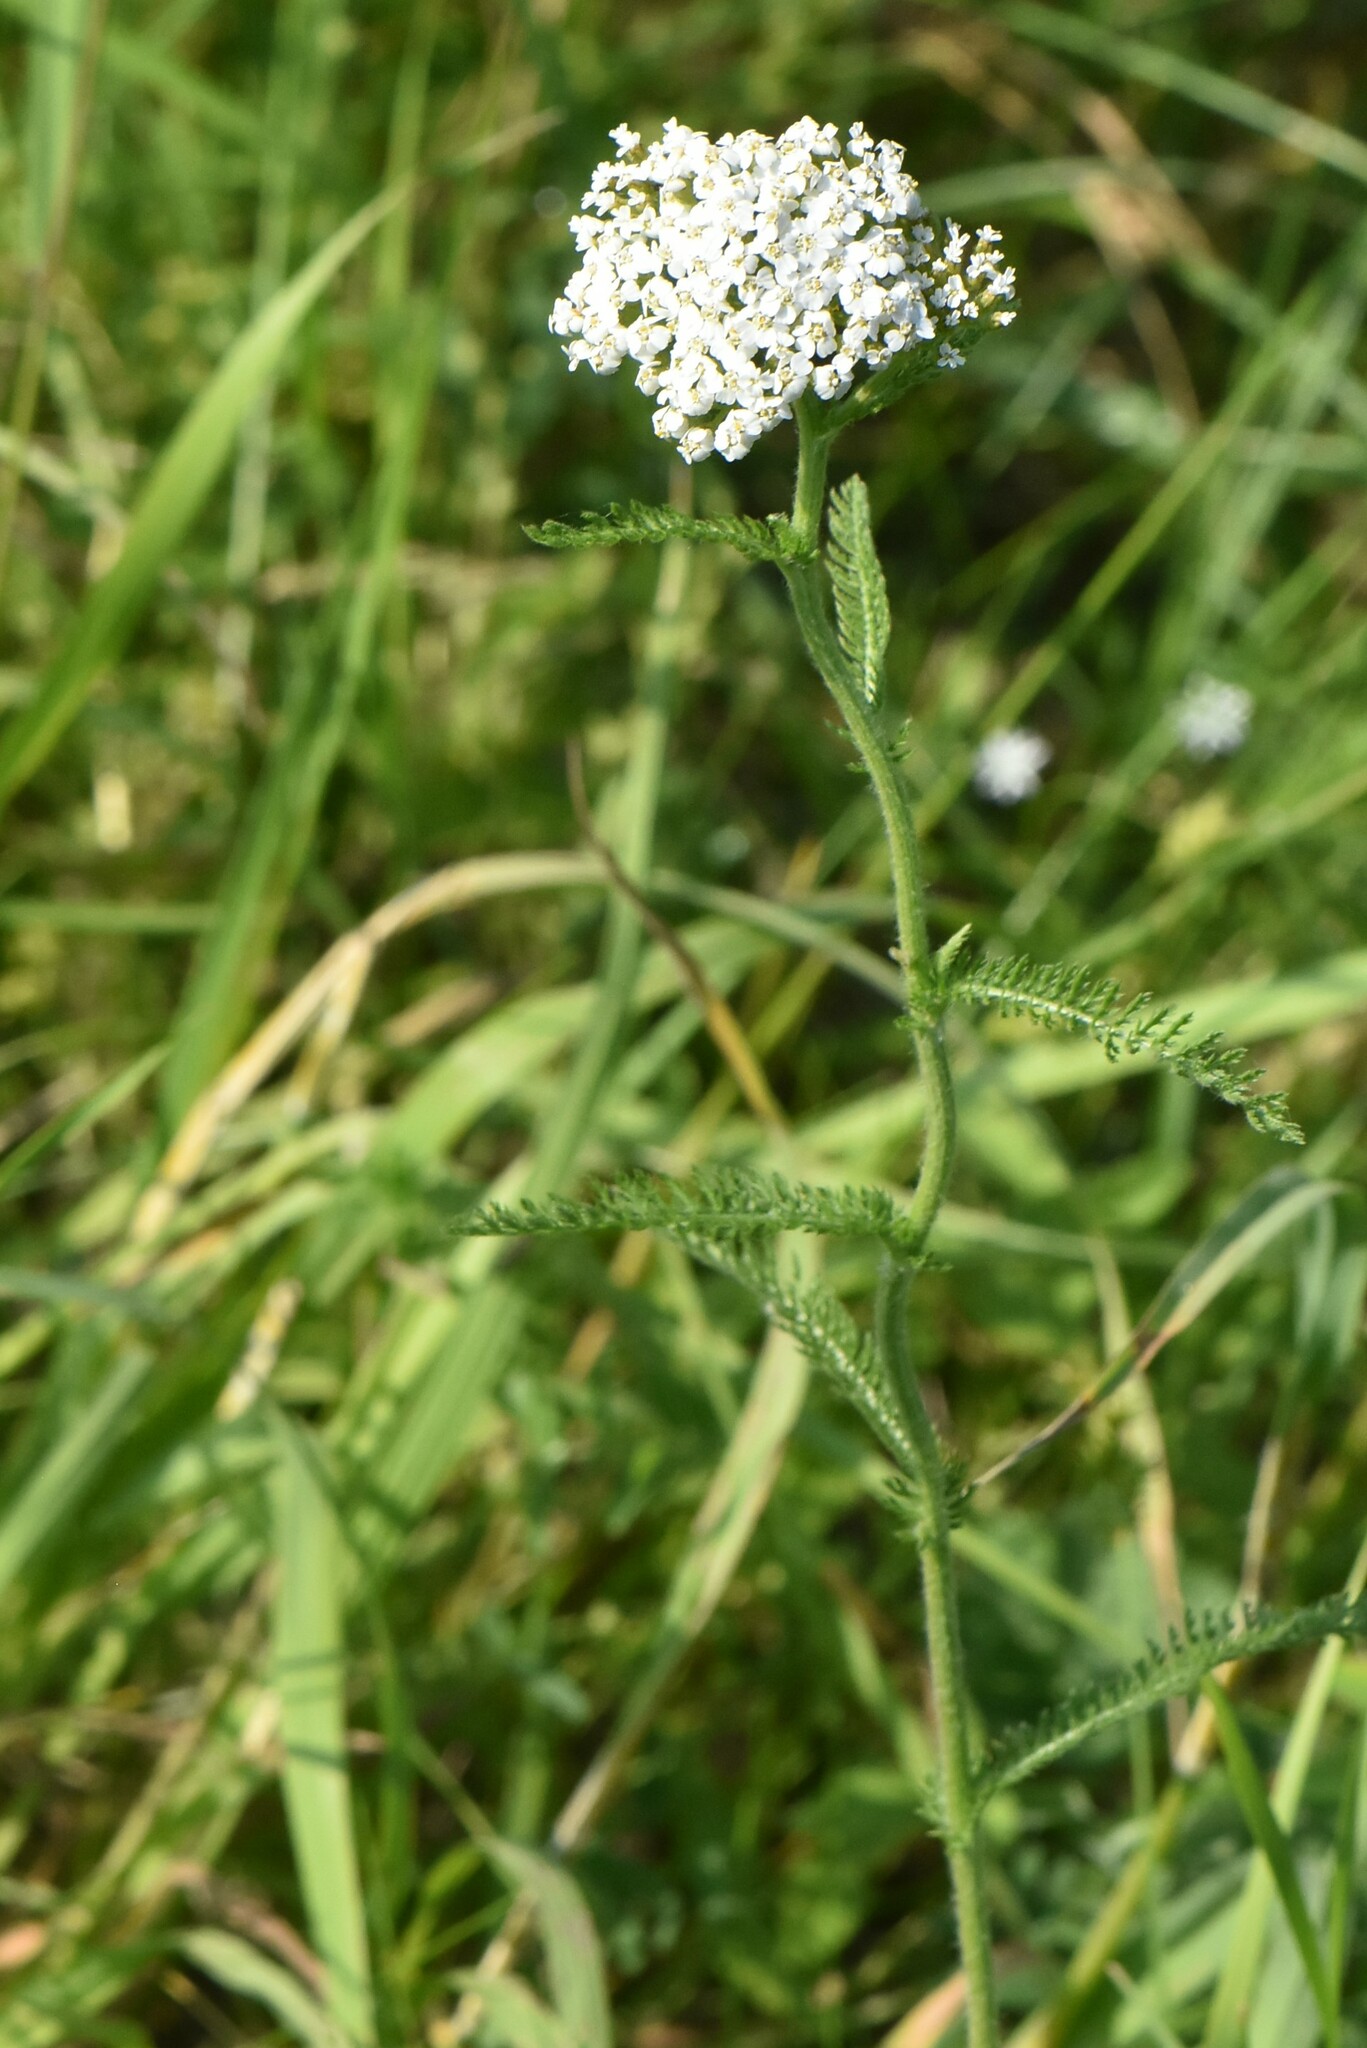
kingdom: Plantae
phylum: Tracheophyta
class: Magnoliopsida
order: Asterales
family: Asteraceae
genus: Achillea
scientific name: Achillea millefolium
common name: Yarrow
